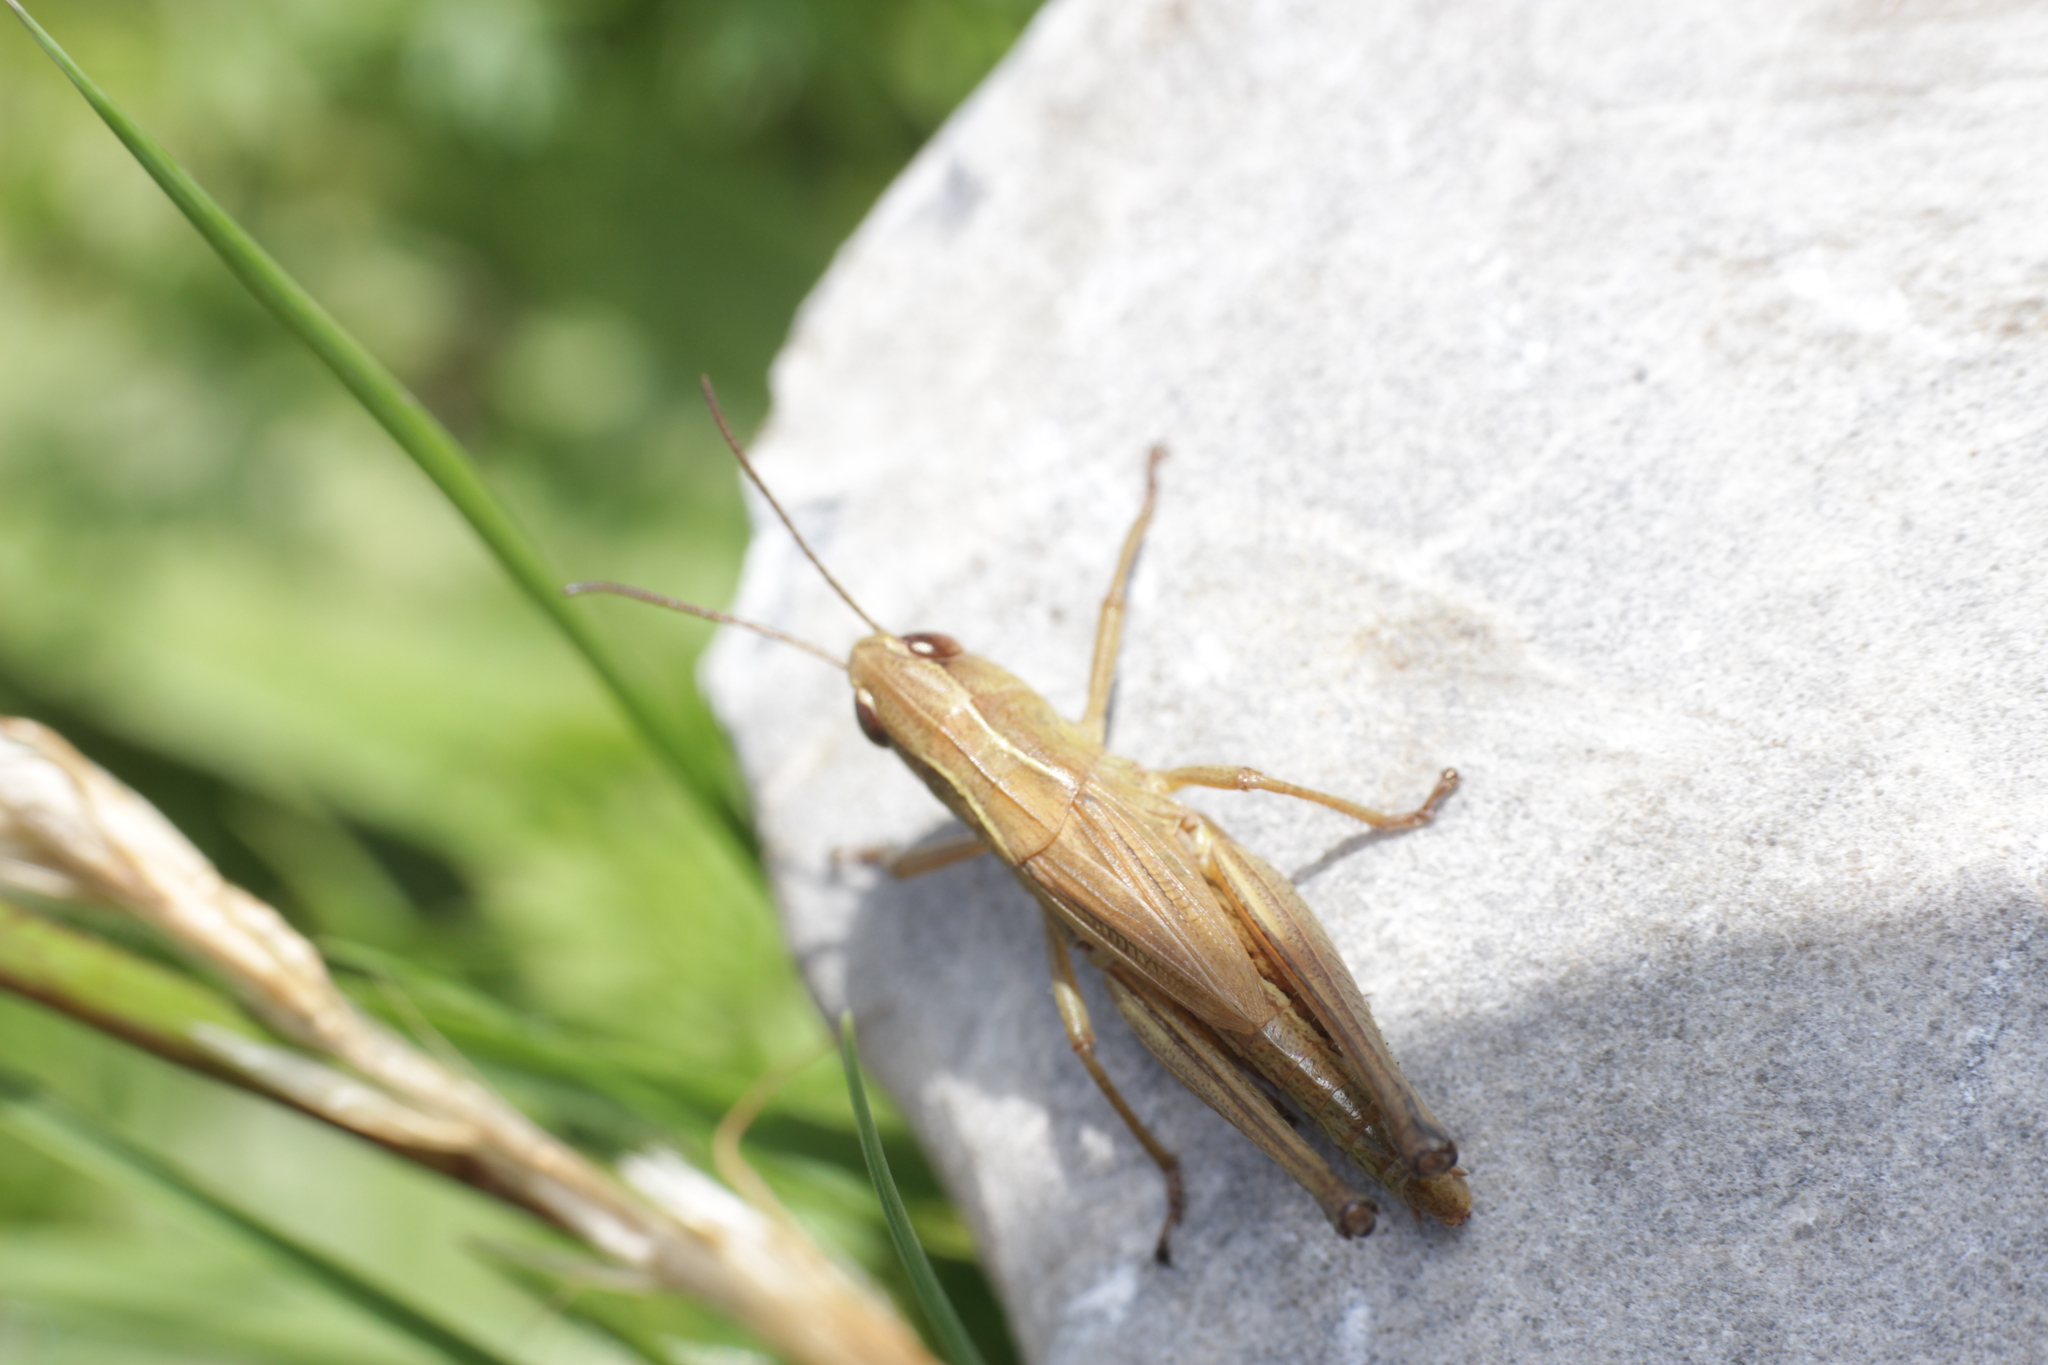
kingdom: Animalia
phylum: Arthropoda
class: Insecta
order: Orthoptera
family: Acrididae
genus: Pseudochorthippus
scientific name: Pseudochorthippus parallelus
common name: Meadow grasshopper
